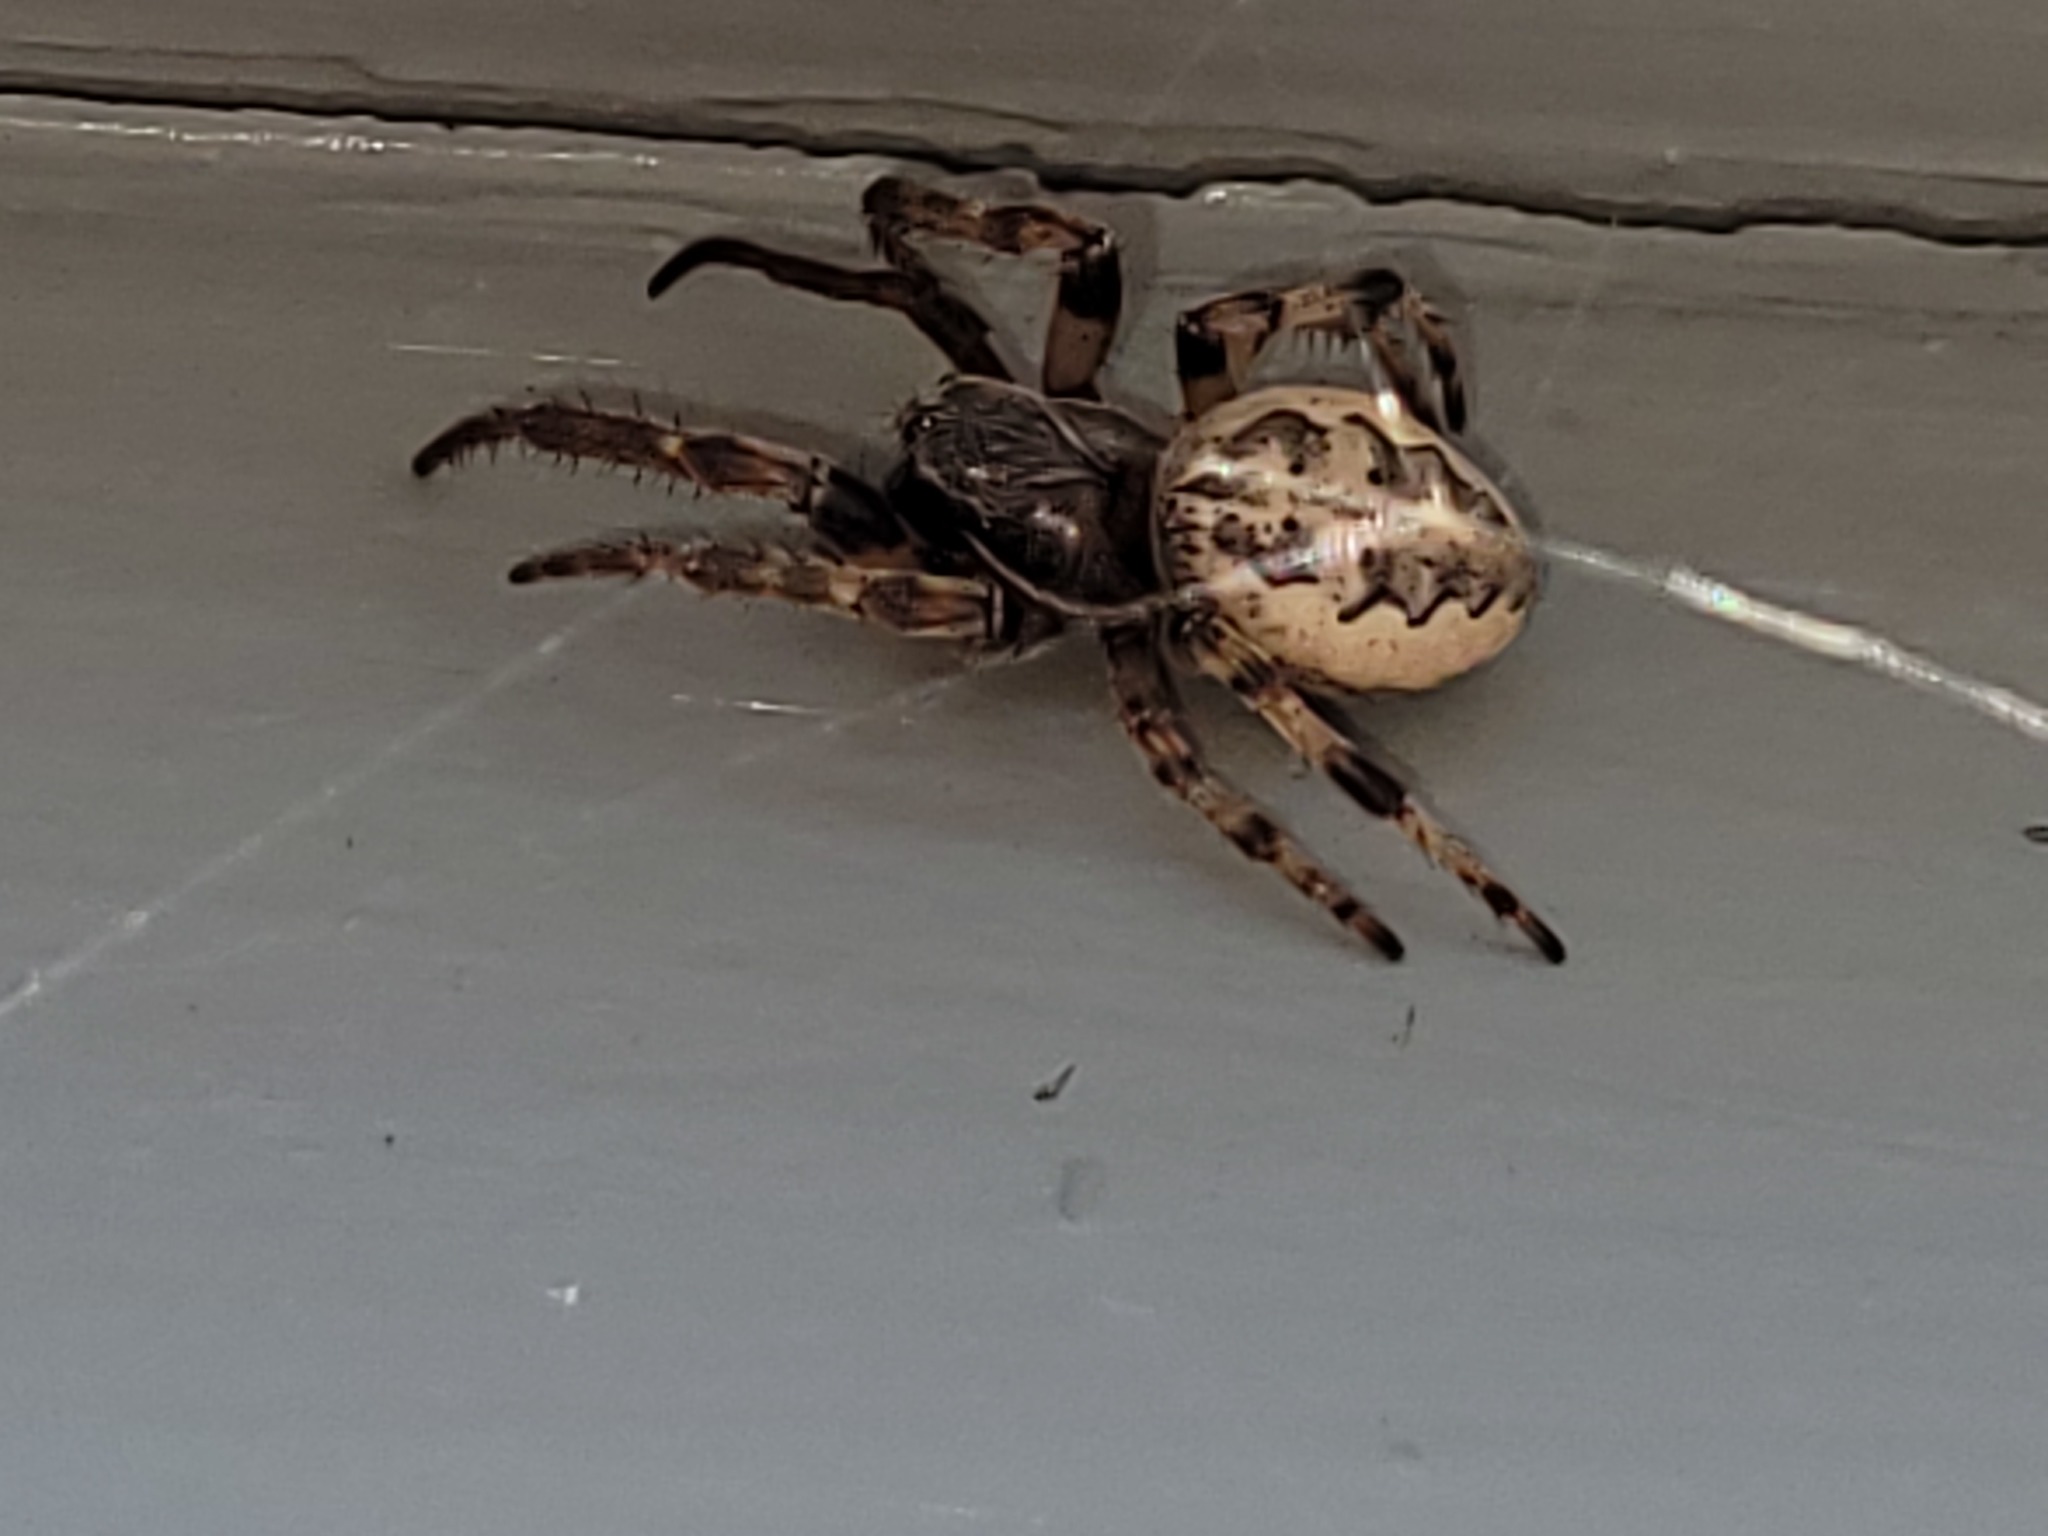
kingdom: Animalia
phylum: Arthropoda
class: Arachnida
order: Araneae
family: Araneidae
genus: Larinioides
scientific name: Larinioides cornutus
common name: Furrow orbweaver
